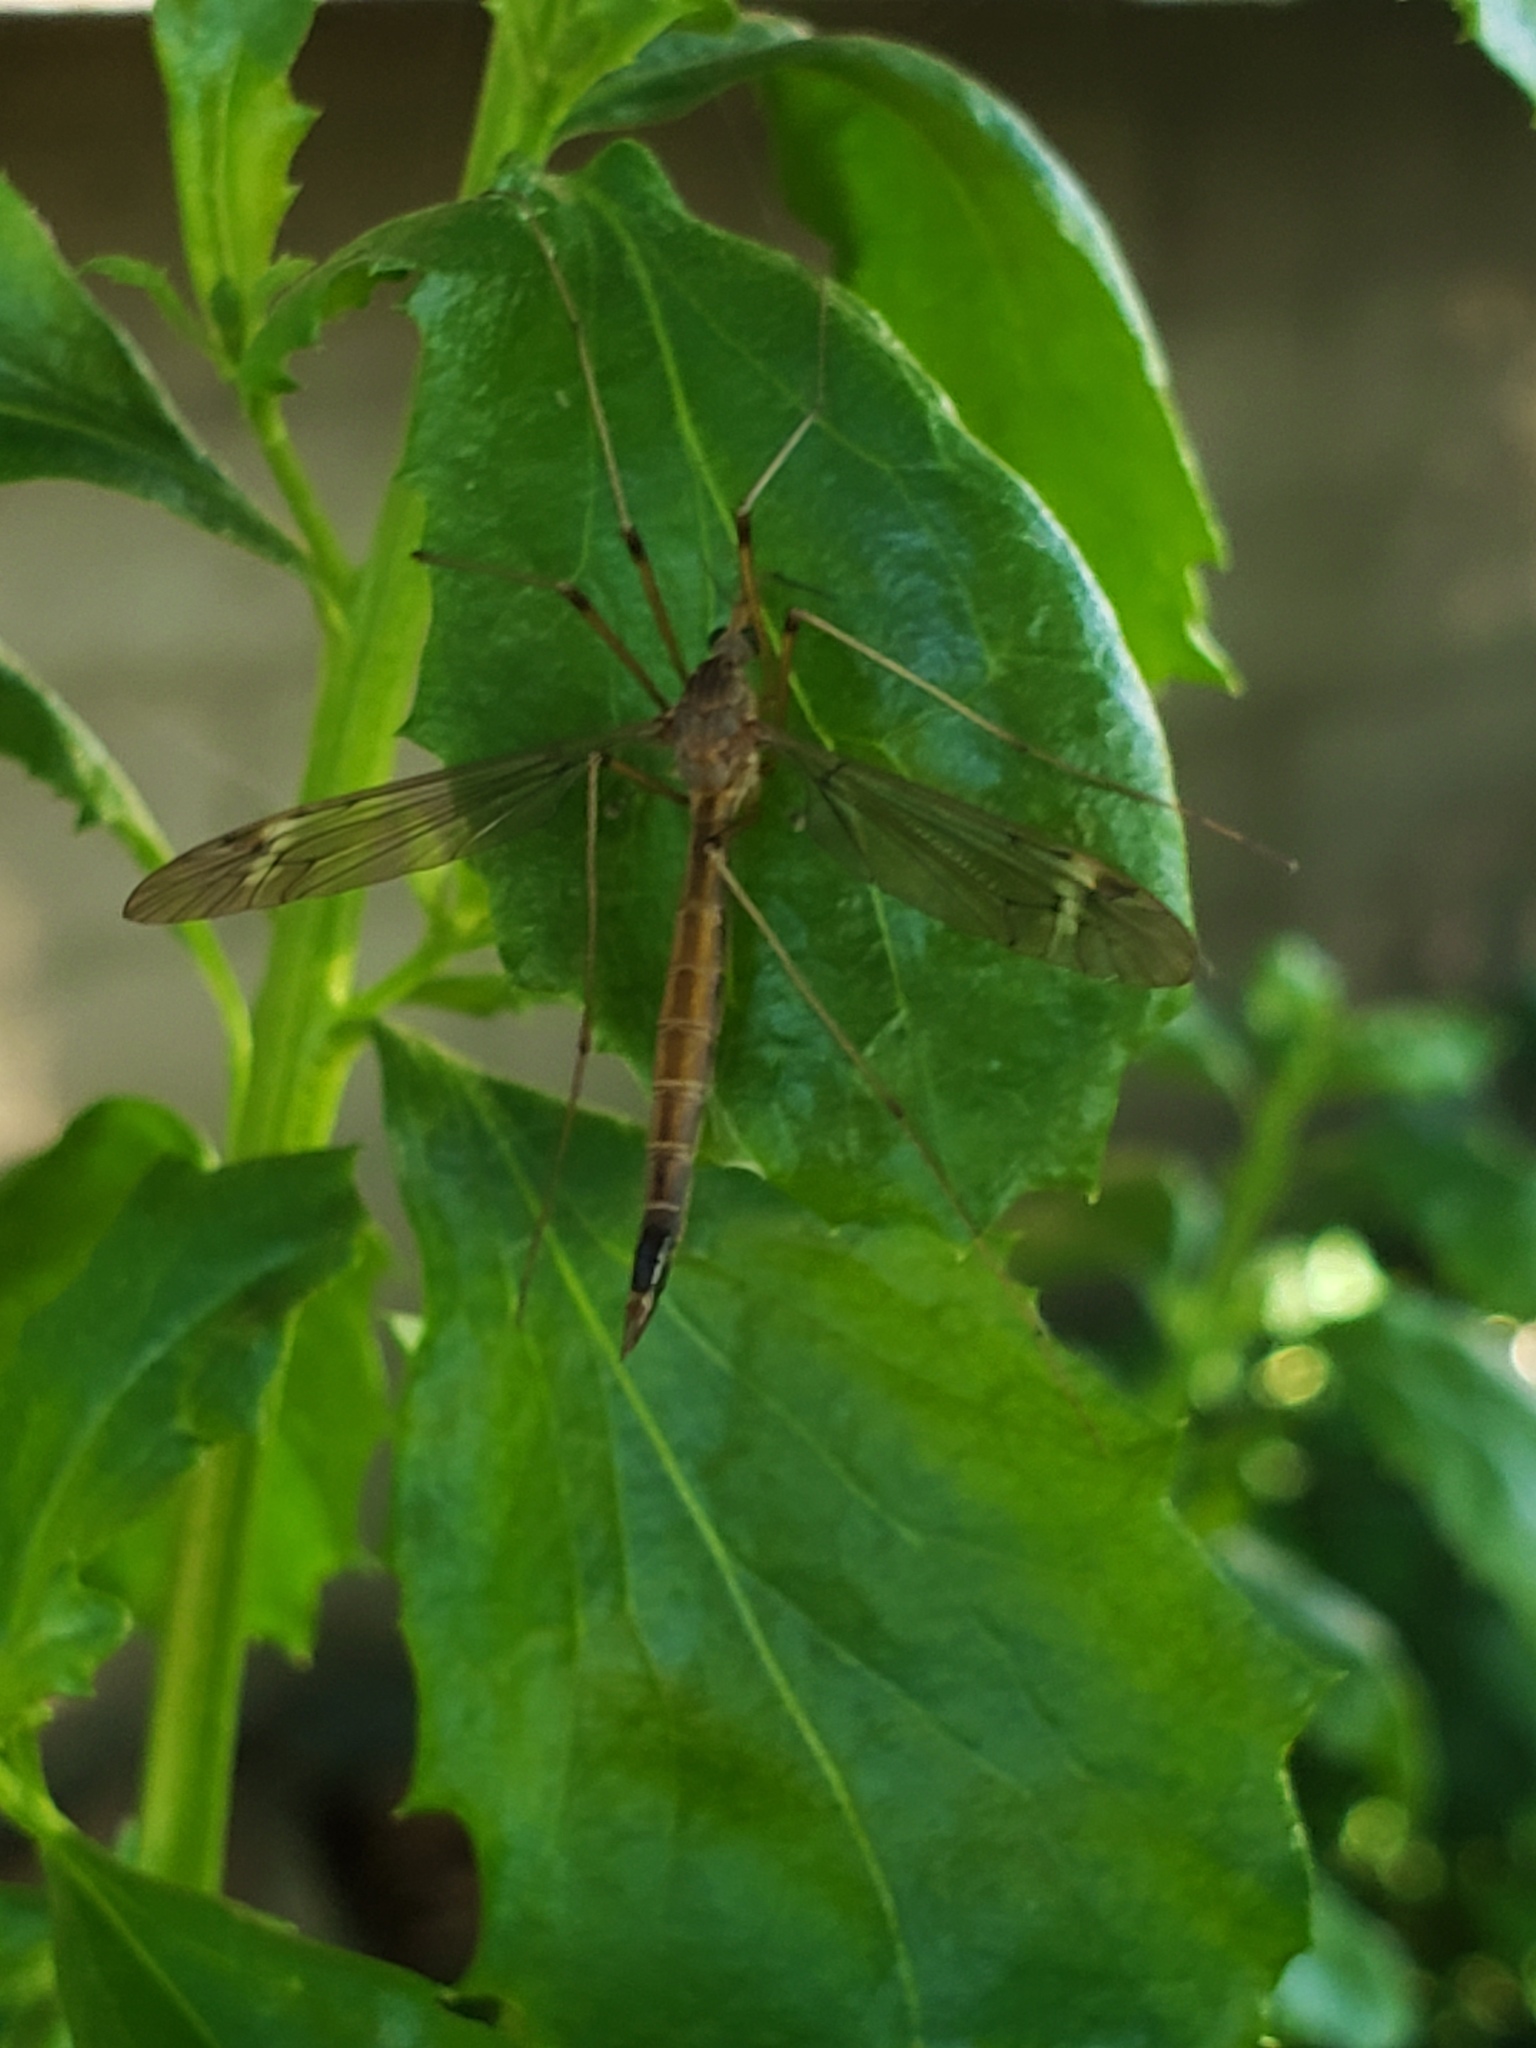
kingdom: Animalia
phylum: Arthropoda
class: Insecta
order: Diptera
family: Tipulidae
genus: Tipula
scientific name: Tipula
